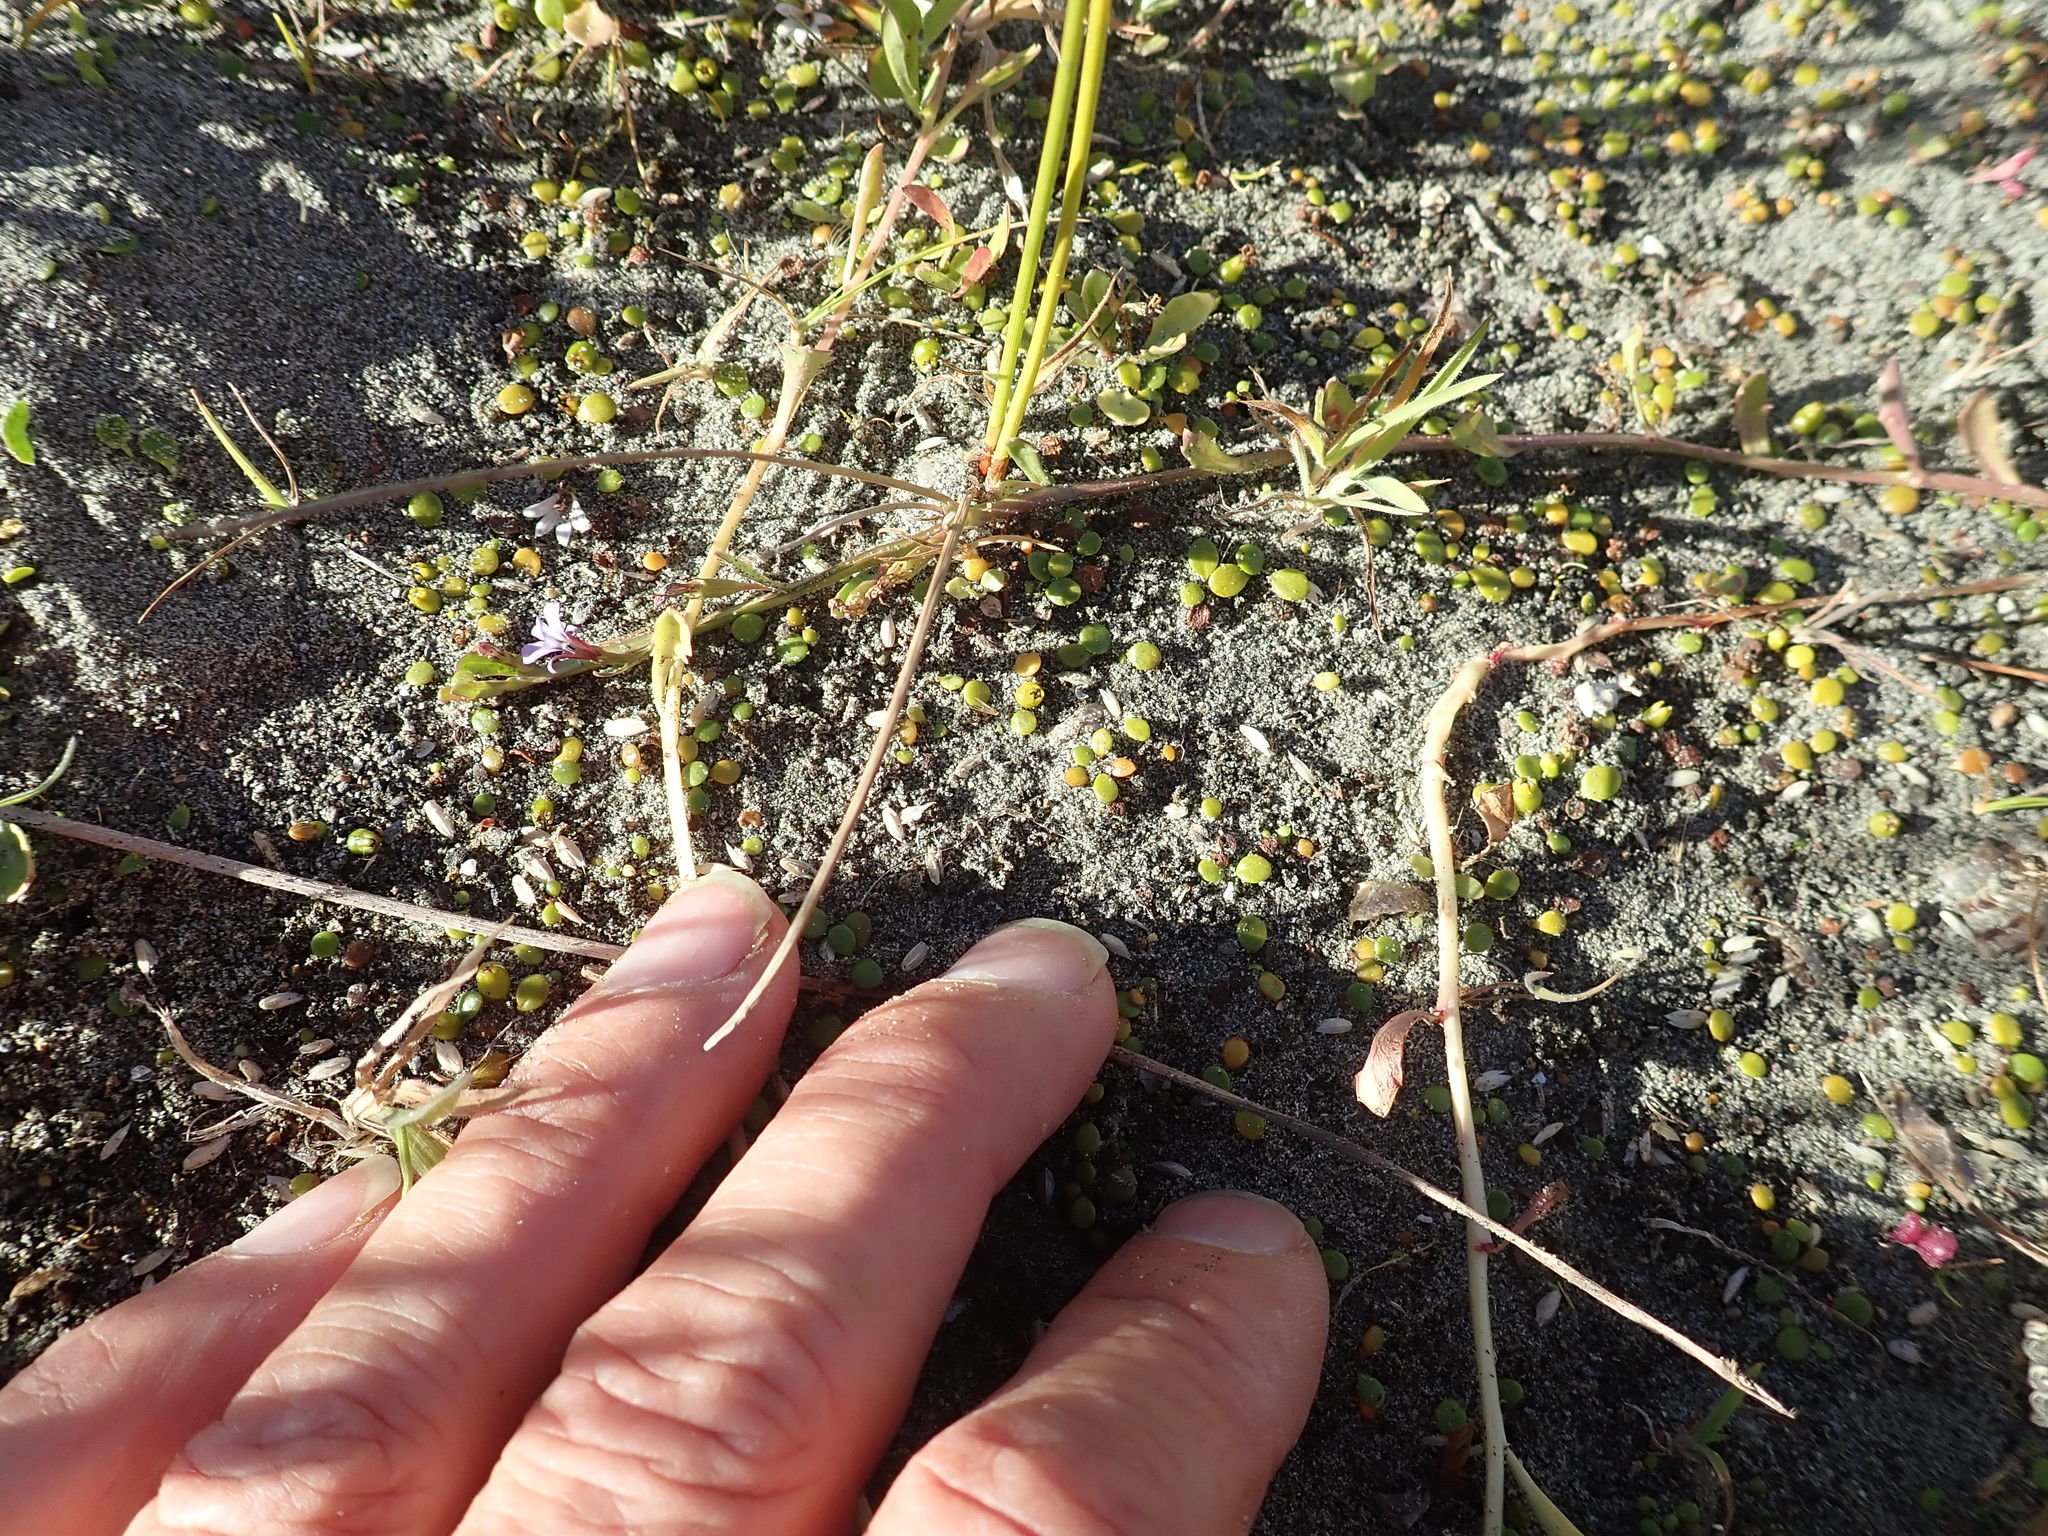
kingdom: Plantae
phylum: Tracheophyta
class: Magnoliopsida
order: Asterales
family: Campanulaceae
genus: Lobelia
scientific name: Lobelia anceps
